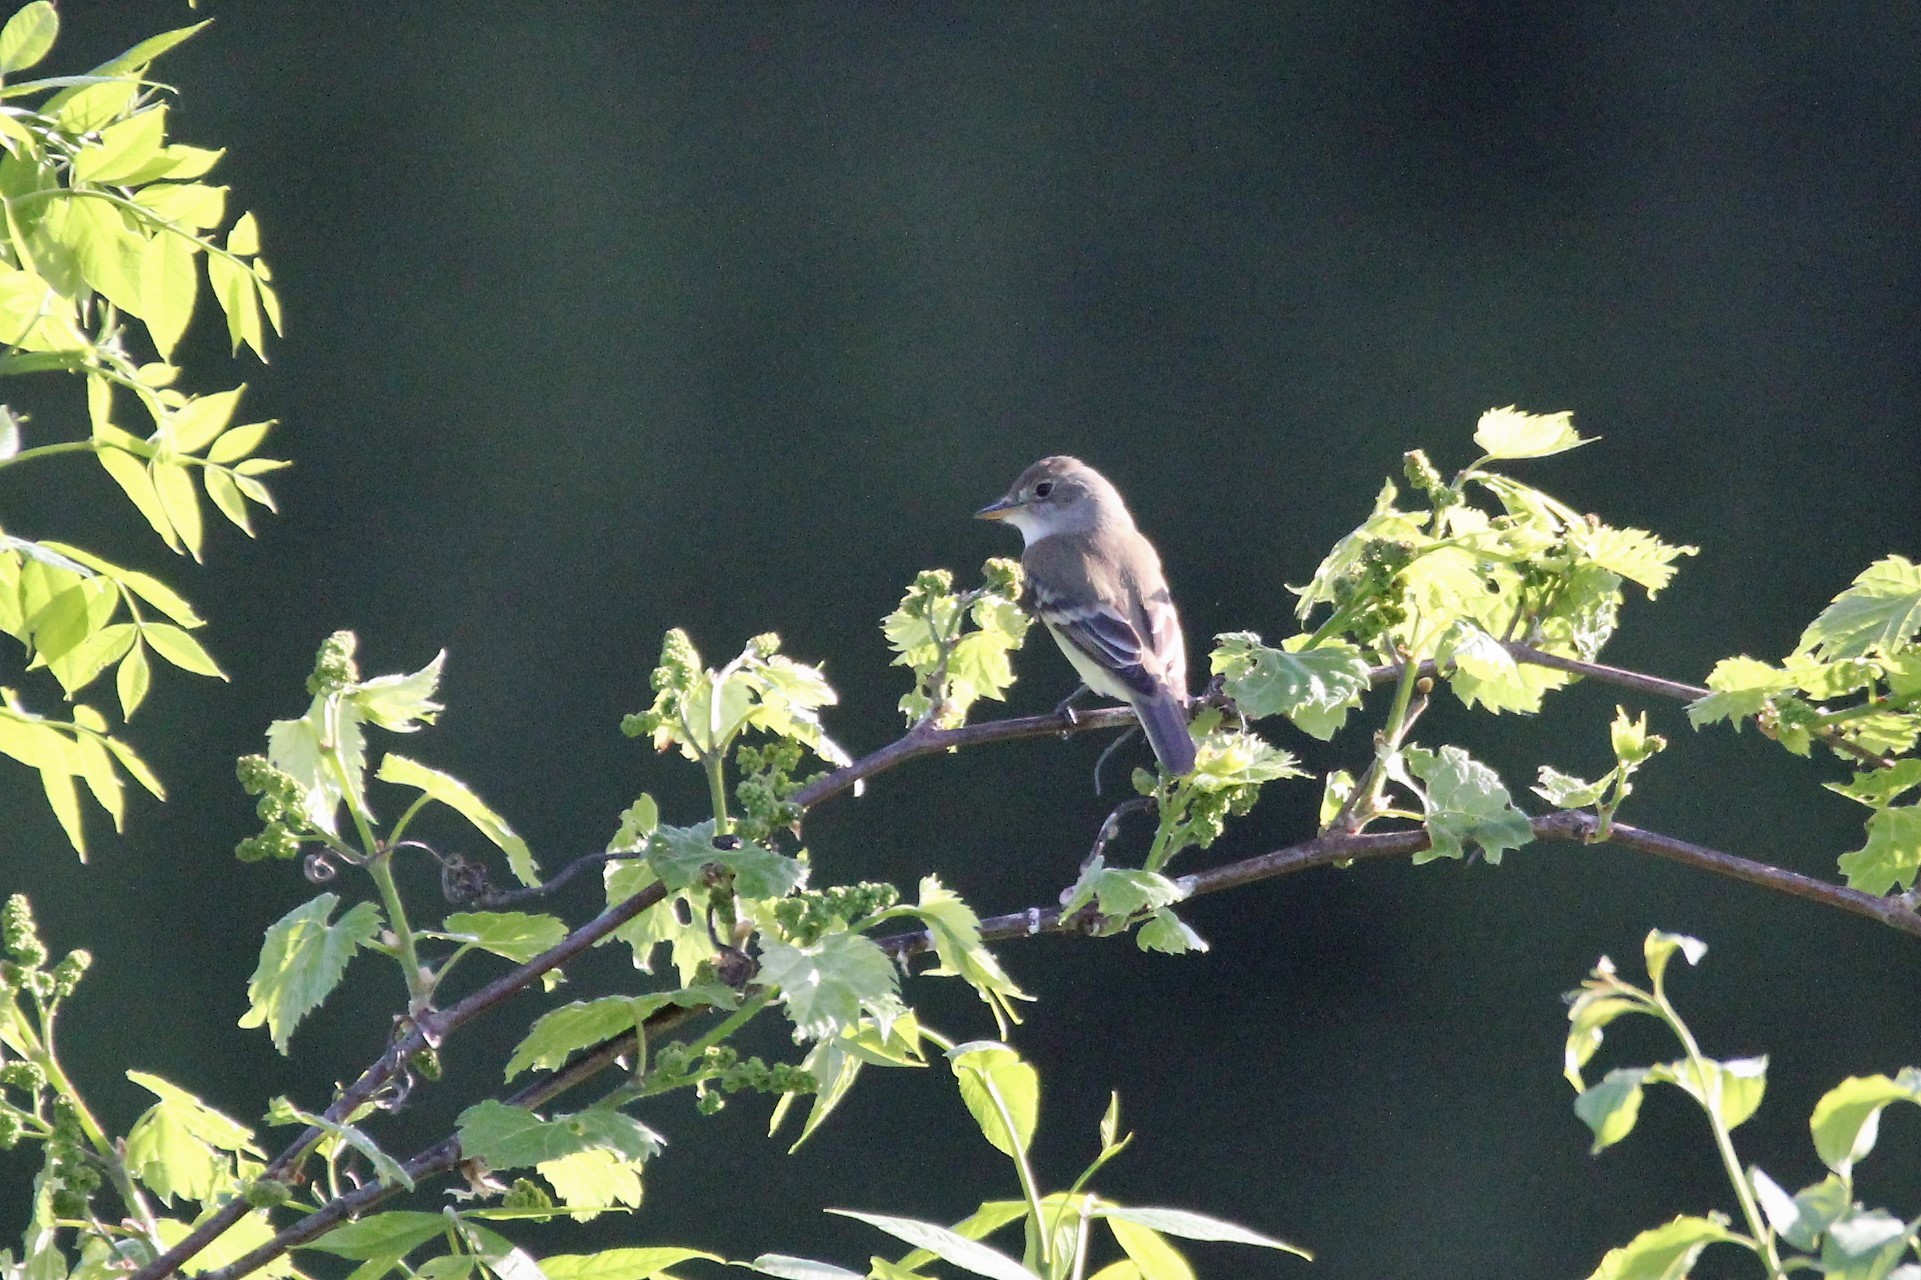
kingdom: Animalia
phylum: Chordata
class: Aves
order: Passeriformes
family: Tyrannidae
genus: Empidonax
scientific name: Empidonax traillii
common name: Willow flycatcher
